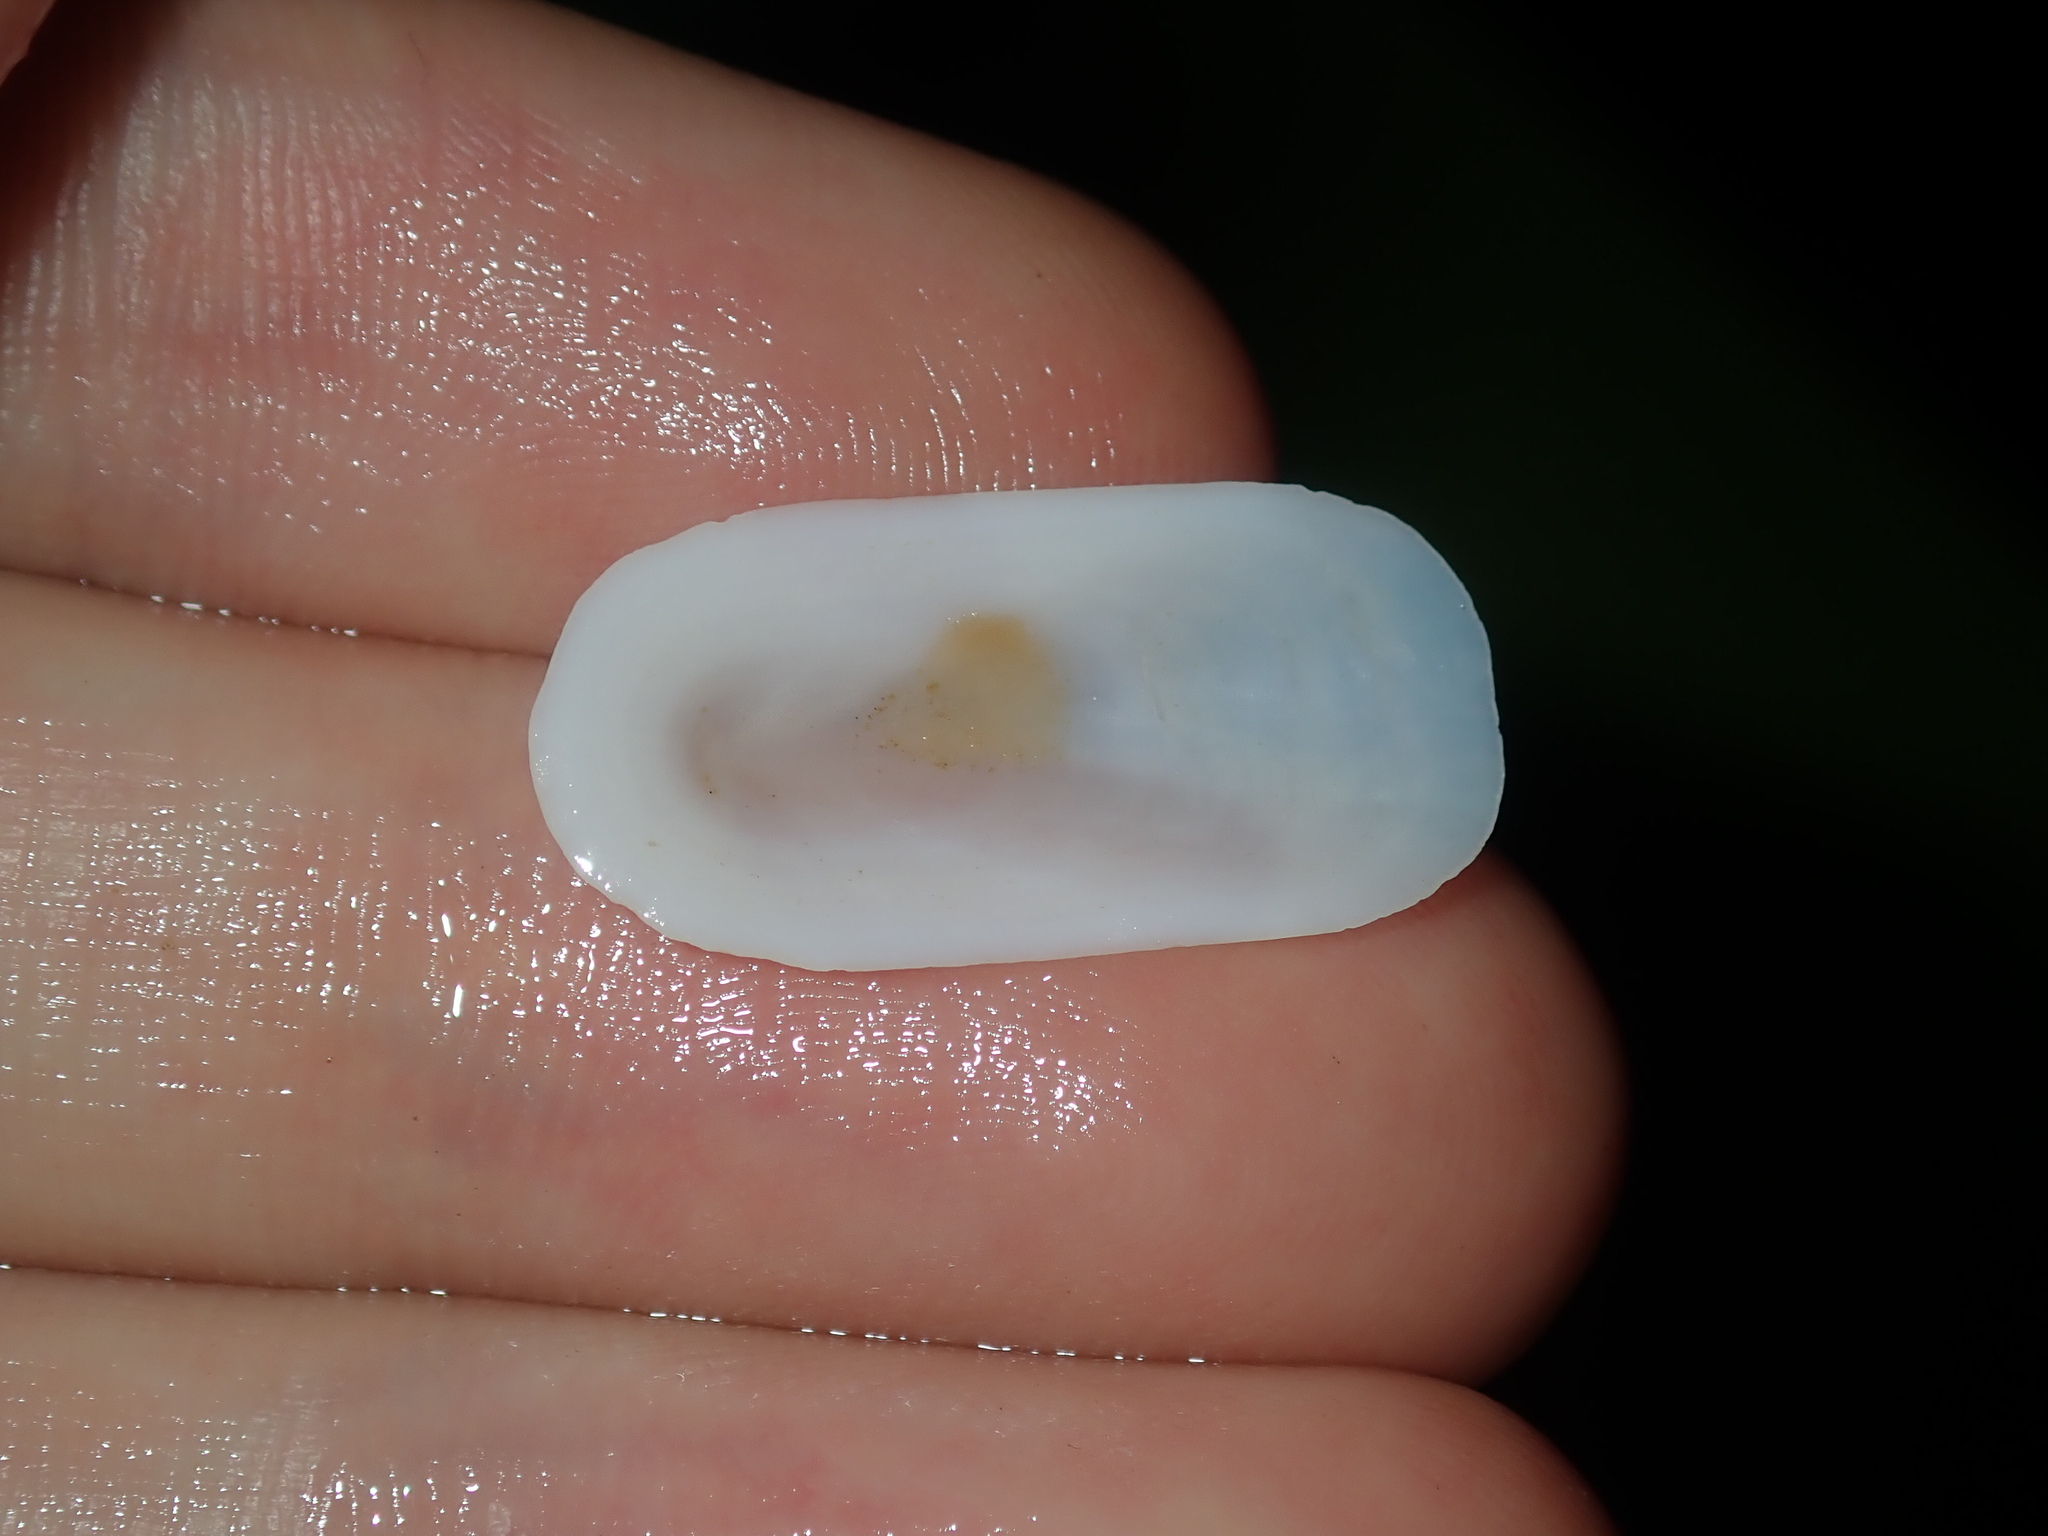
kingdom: Animalia
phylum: Mollusca
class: Gastropoda
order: Lepetellida
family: Fissurellidae
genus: Scutus
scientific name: Scutus antipodes
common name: Duckbill shell
